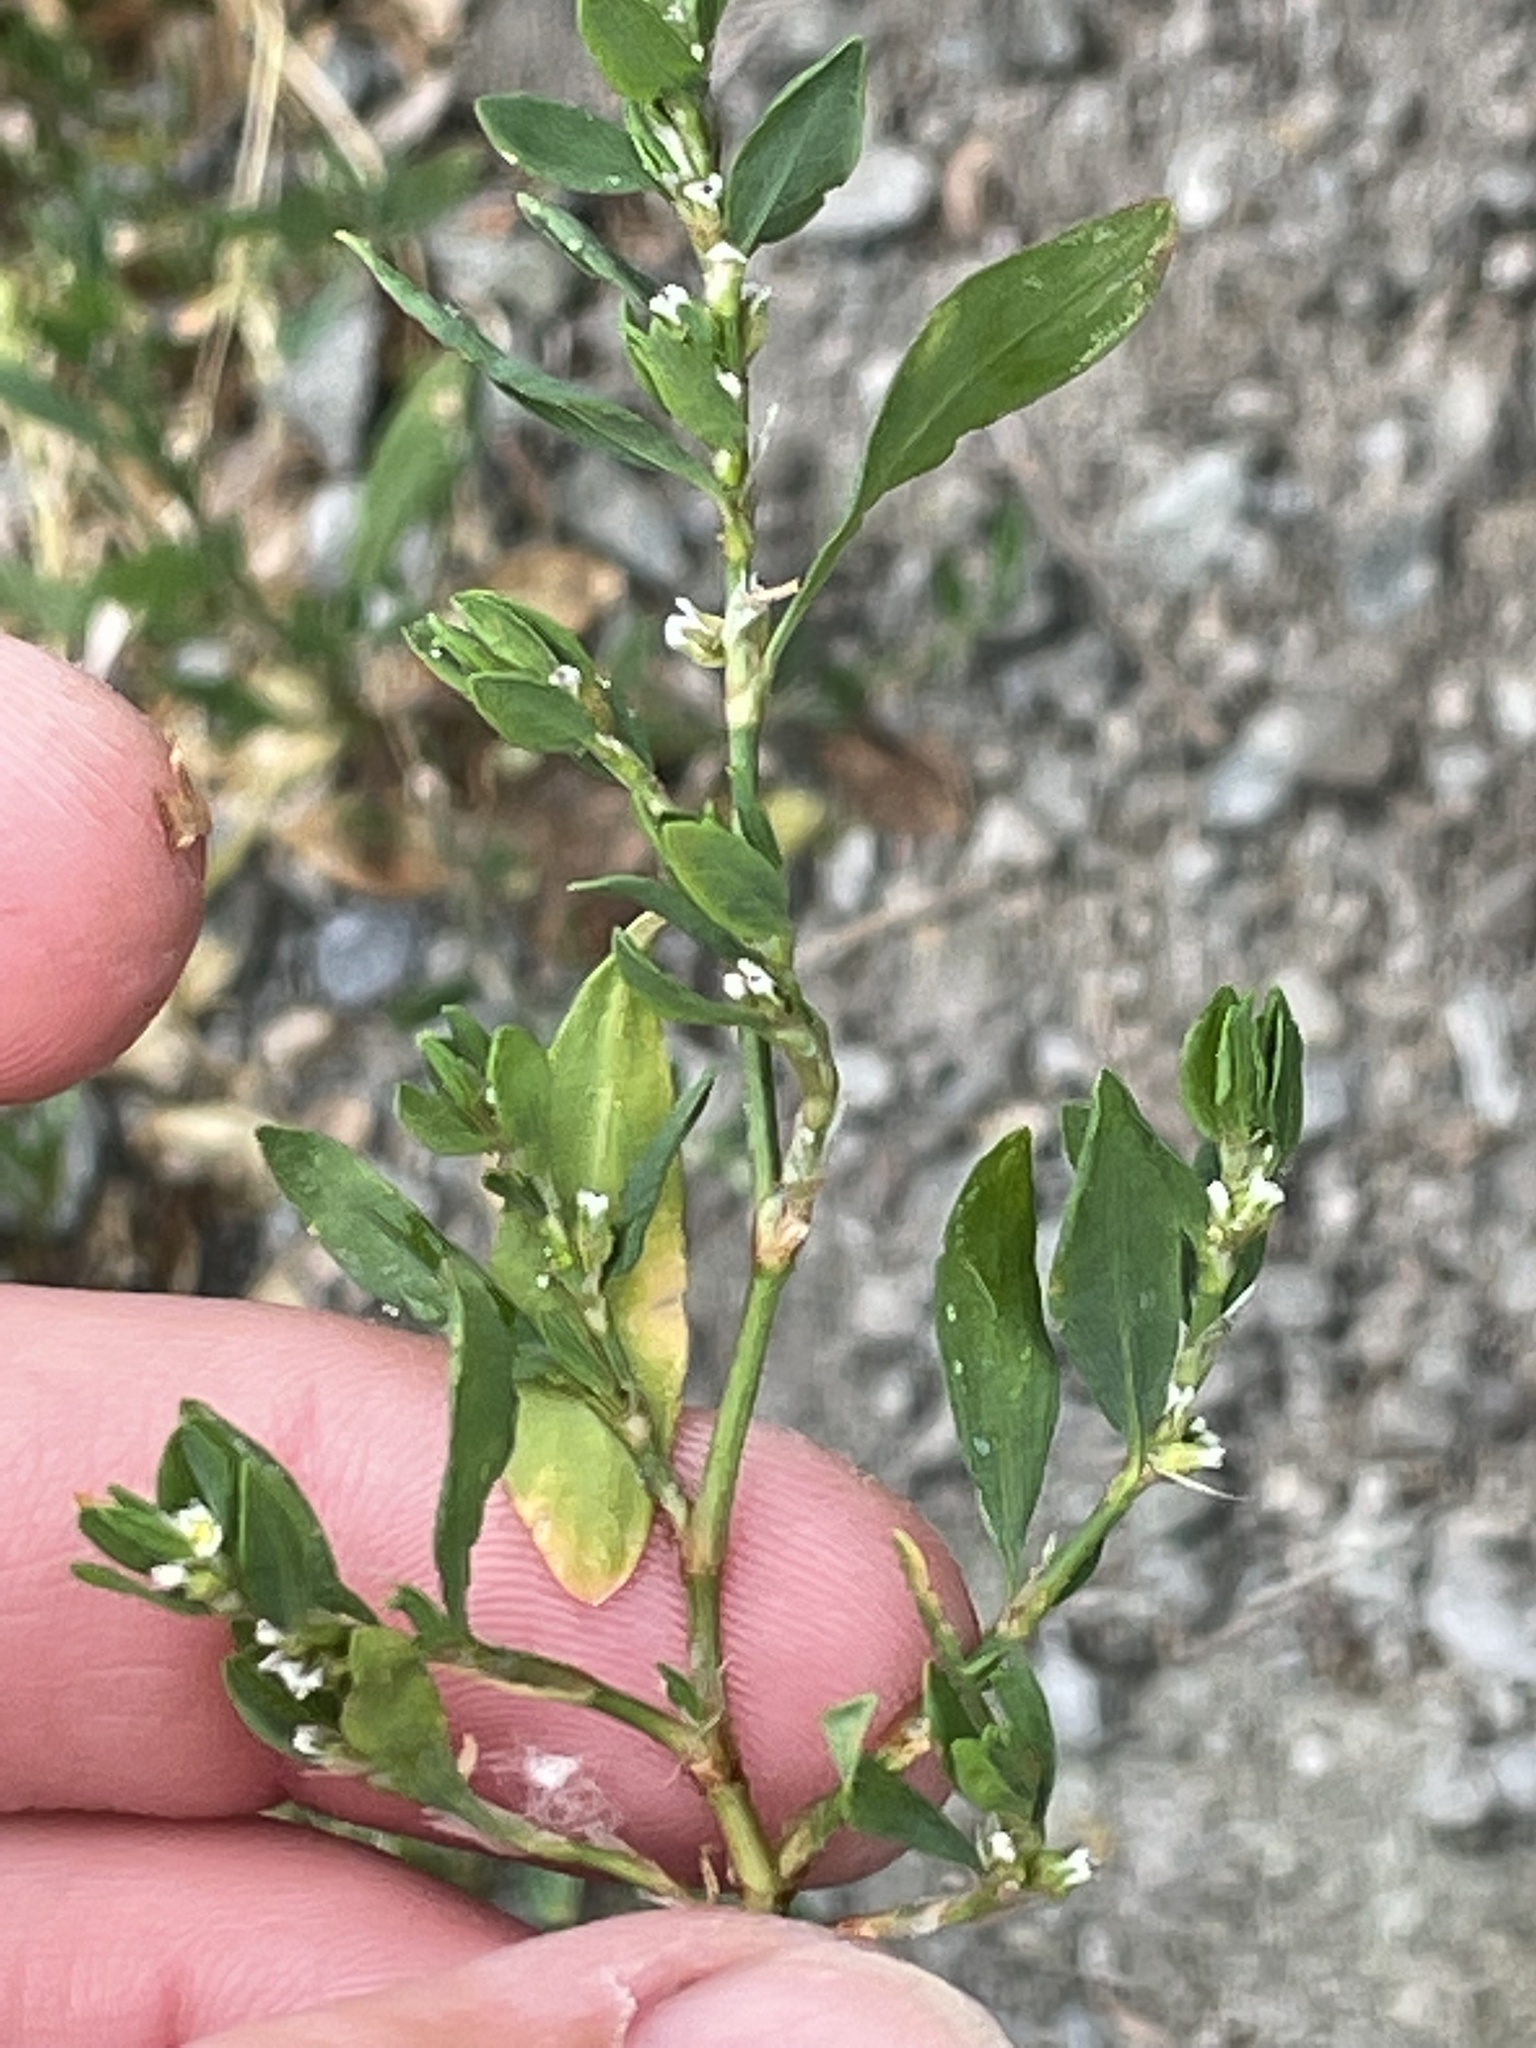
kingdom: Plantae
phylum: Tracheophyta
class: Magnoliopsida
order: Caryophyllales
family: Polygonaceae
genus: Polygonum
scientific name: Polygonum arenastrum
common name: Equal-leaved knotgrass
